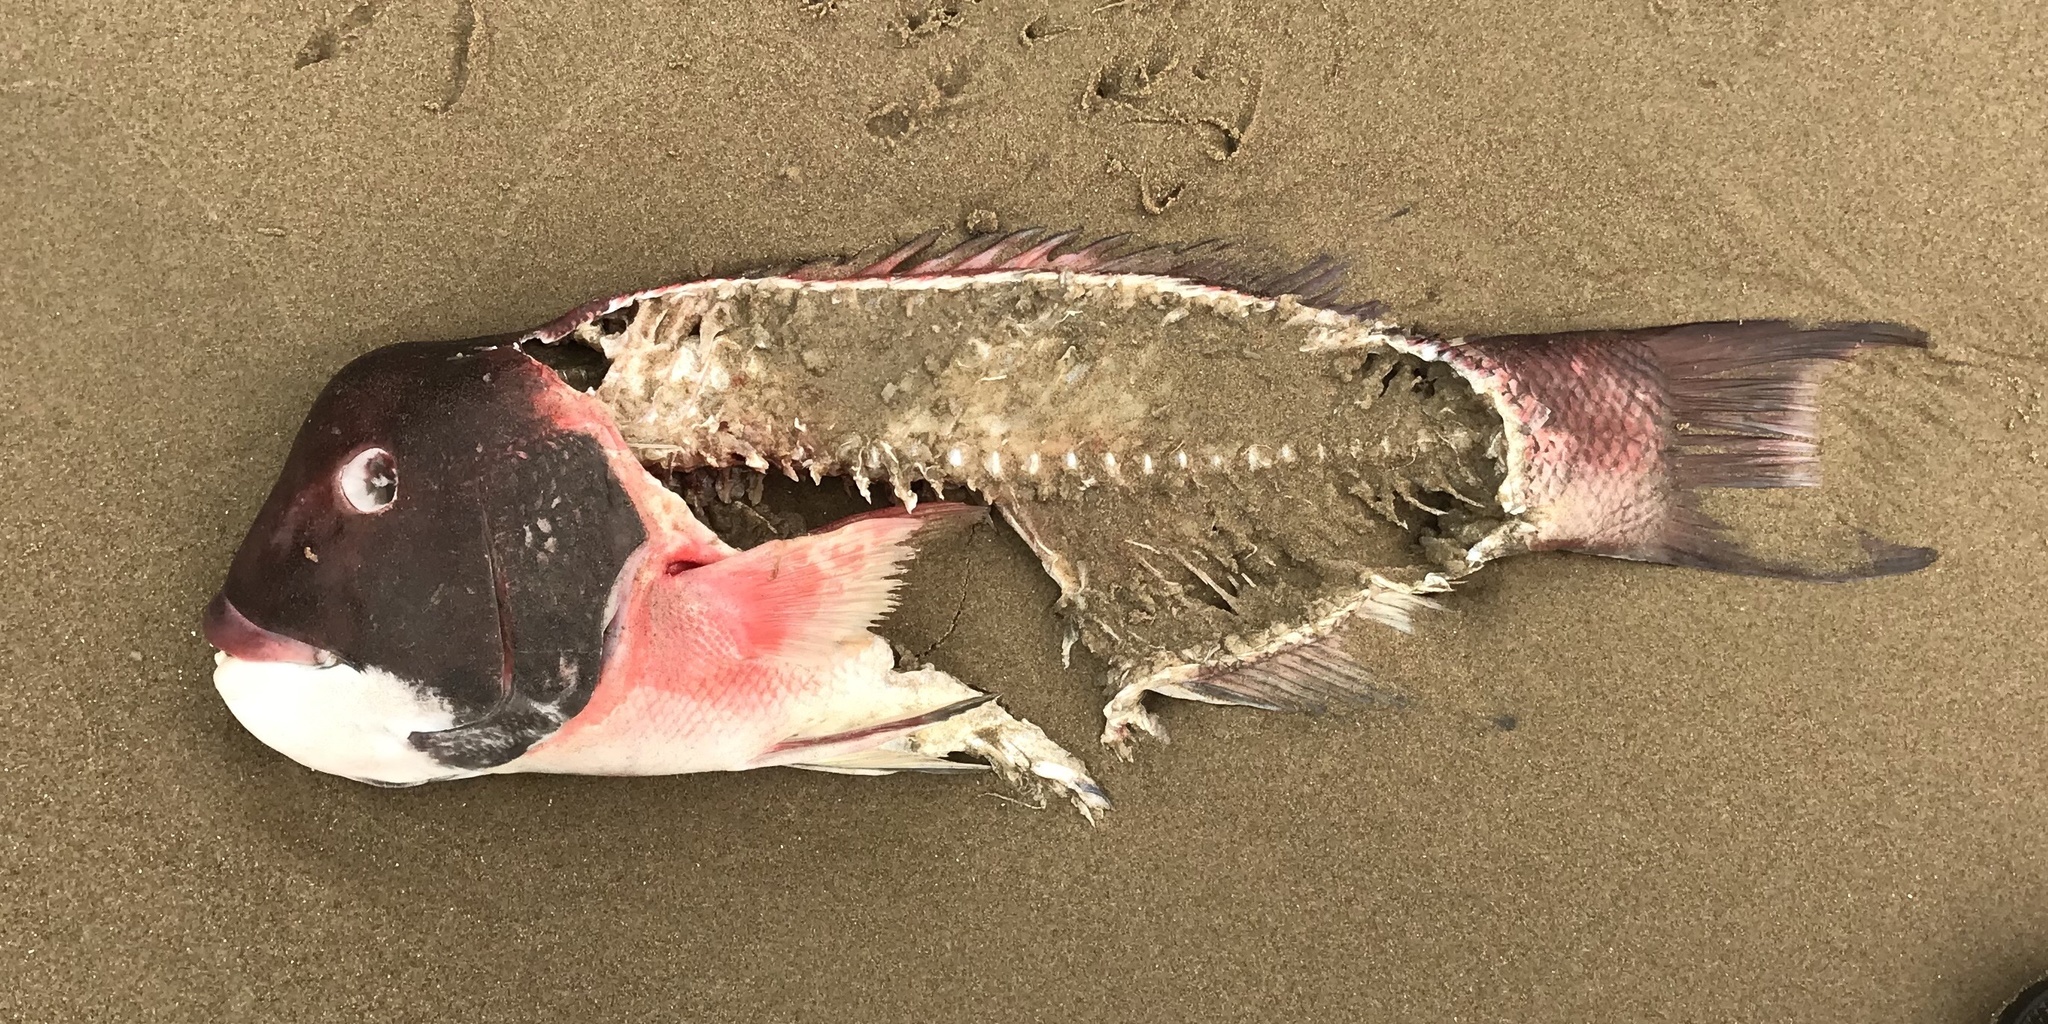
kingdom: Animalia
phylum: Chordata
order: Perciformes
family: Labridae
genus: Semicossyphus
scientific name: Semicossyphus pulcher
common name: California sheephead
